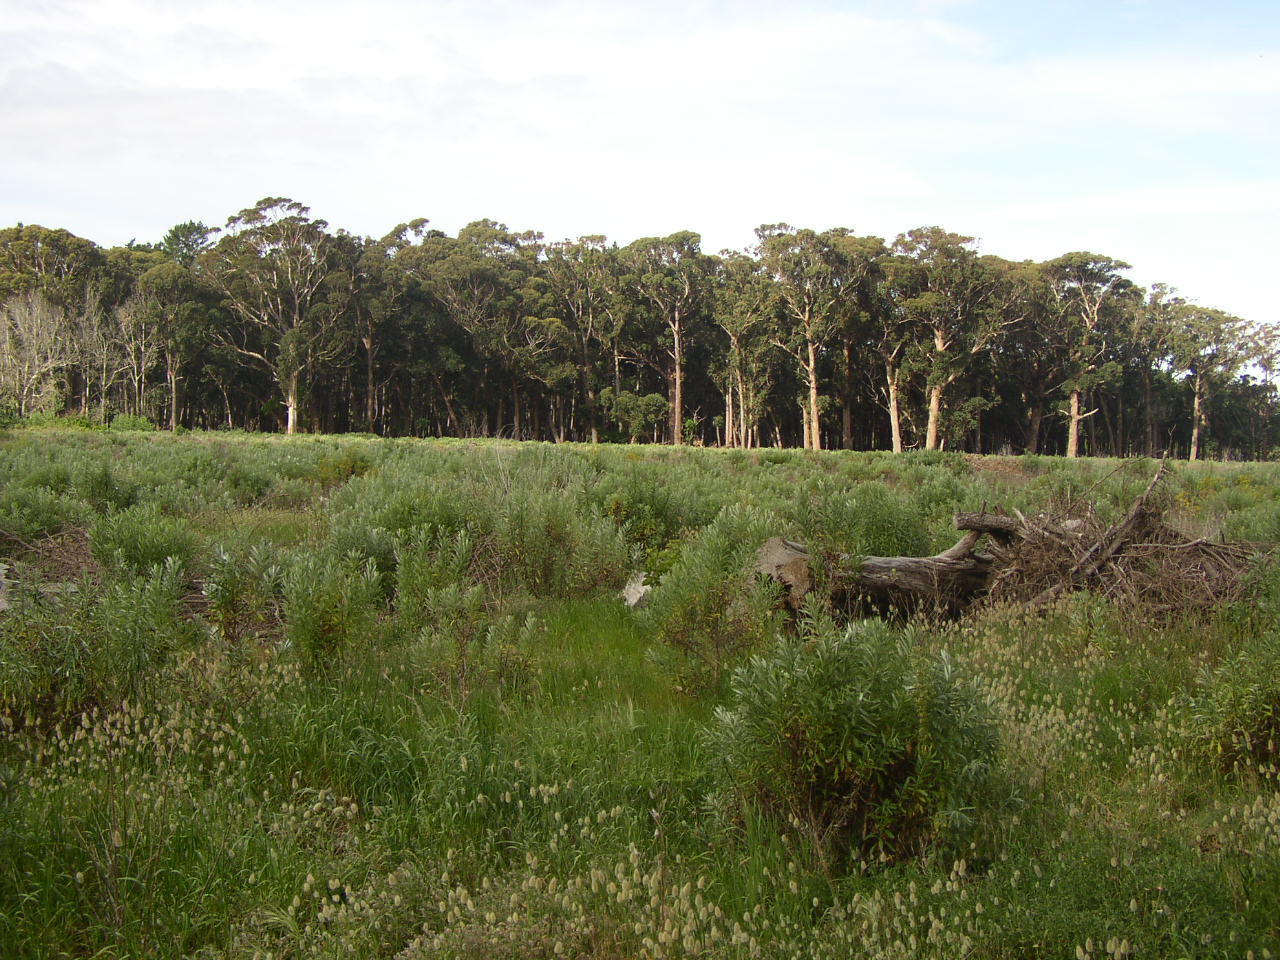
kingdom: Plantae
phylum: Tracheophyta
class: Magnoliopsida
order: Asterales
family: Asteraceae
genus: Senecio
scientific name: Senecio pterophorus
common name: Shoddy ragwort
